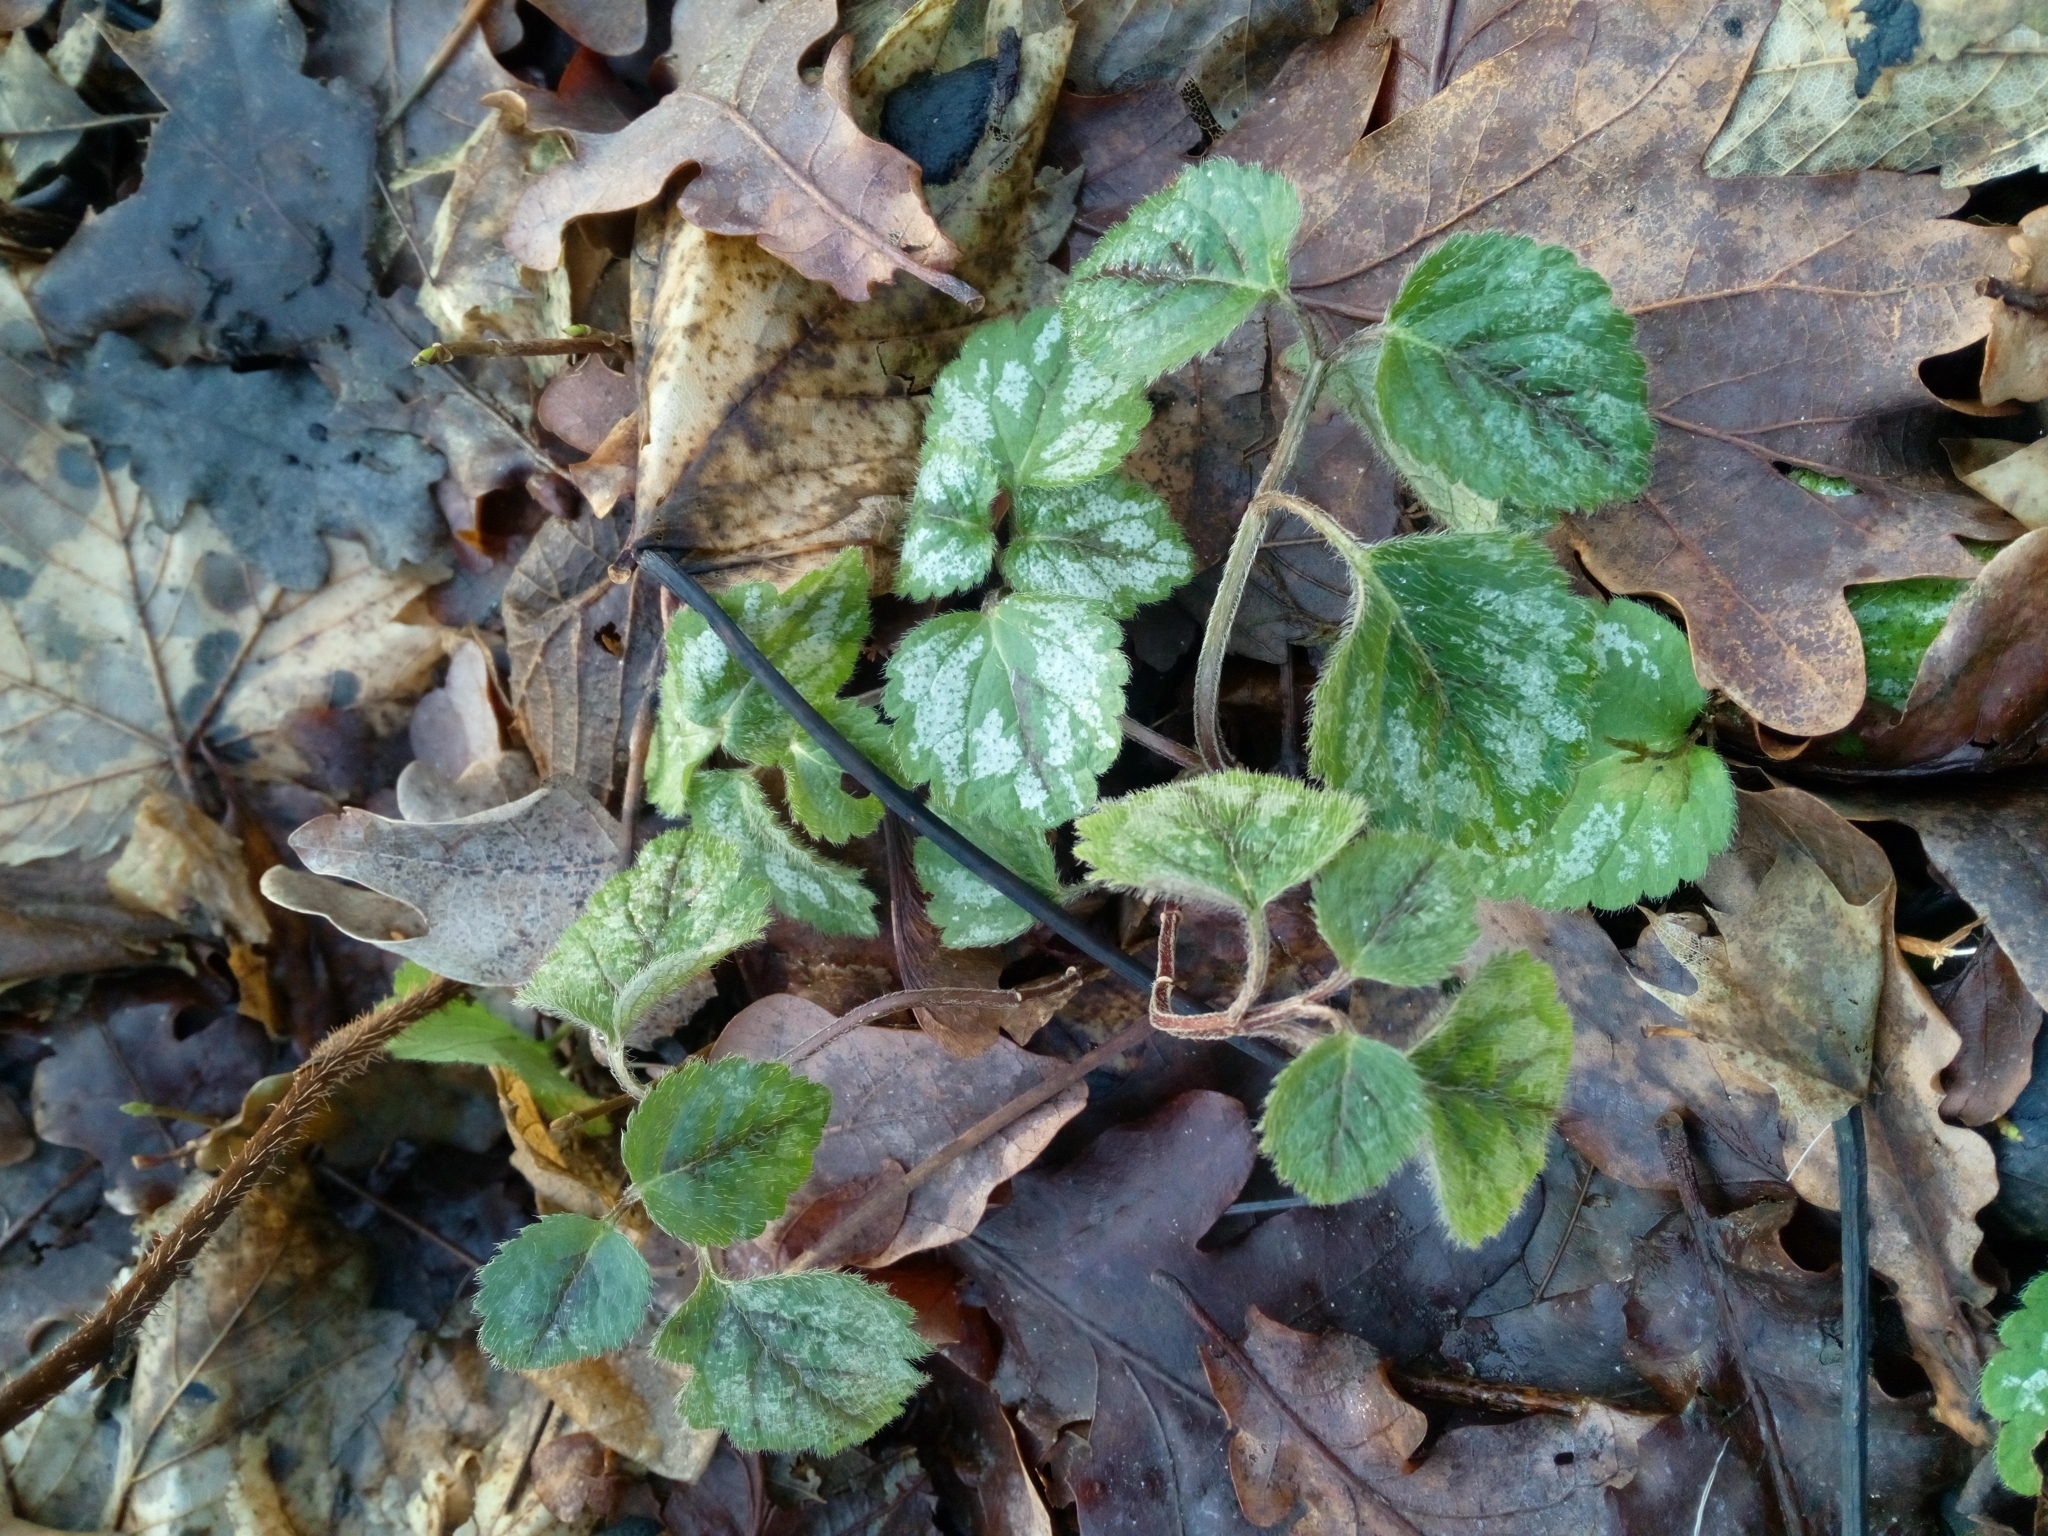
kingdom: Plantae
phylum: Tracheophyta
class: Magnoliopsida
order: Lamiales
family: Lamiaceae
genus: Lamium
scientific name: Lamium galeobdolon
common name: Yellow archangel
